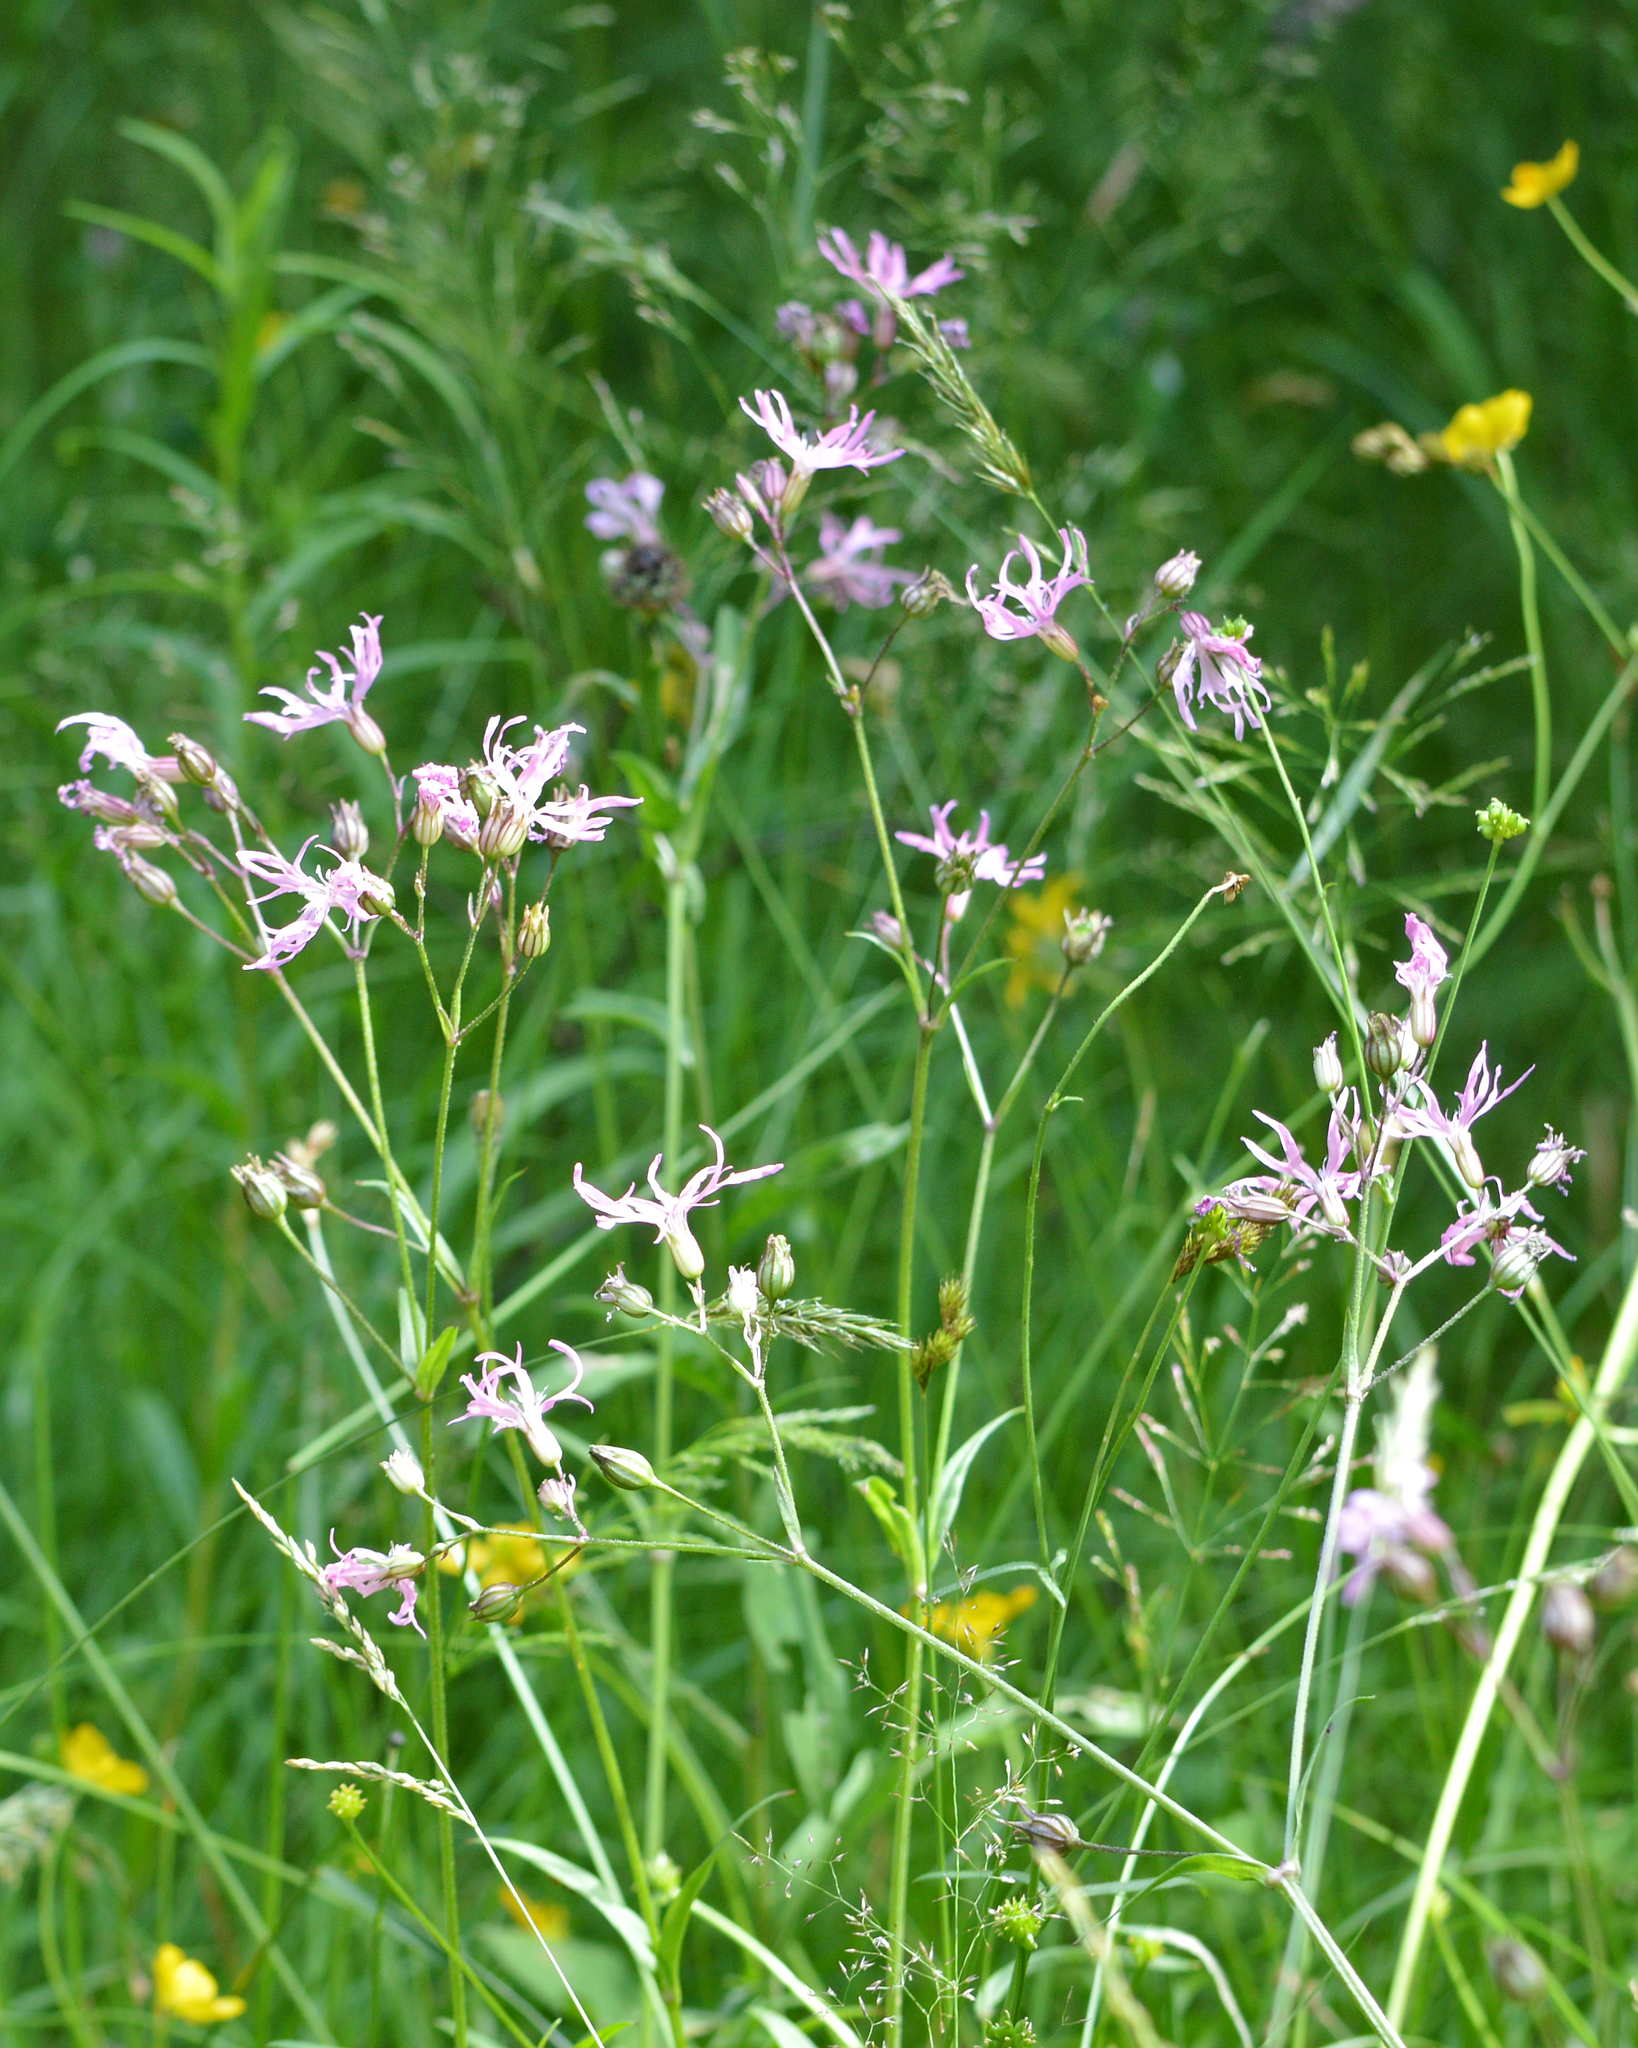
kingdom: Plantae
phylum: Tracheophyta
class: Magnoliopsida
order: Caryophyllales
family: Caryophyllaceae
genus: Silene
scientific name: Silene flos-cuculi
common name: Ragged-robin
